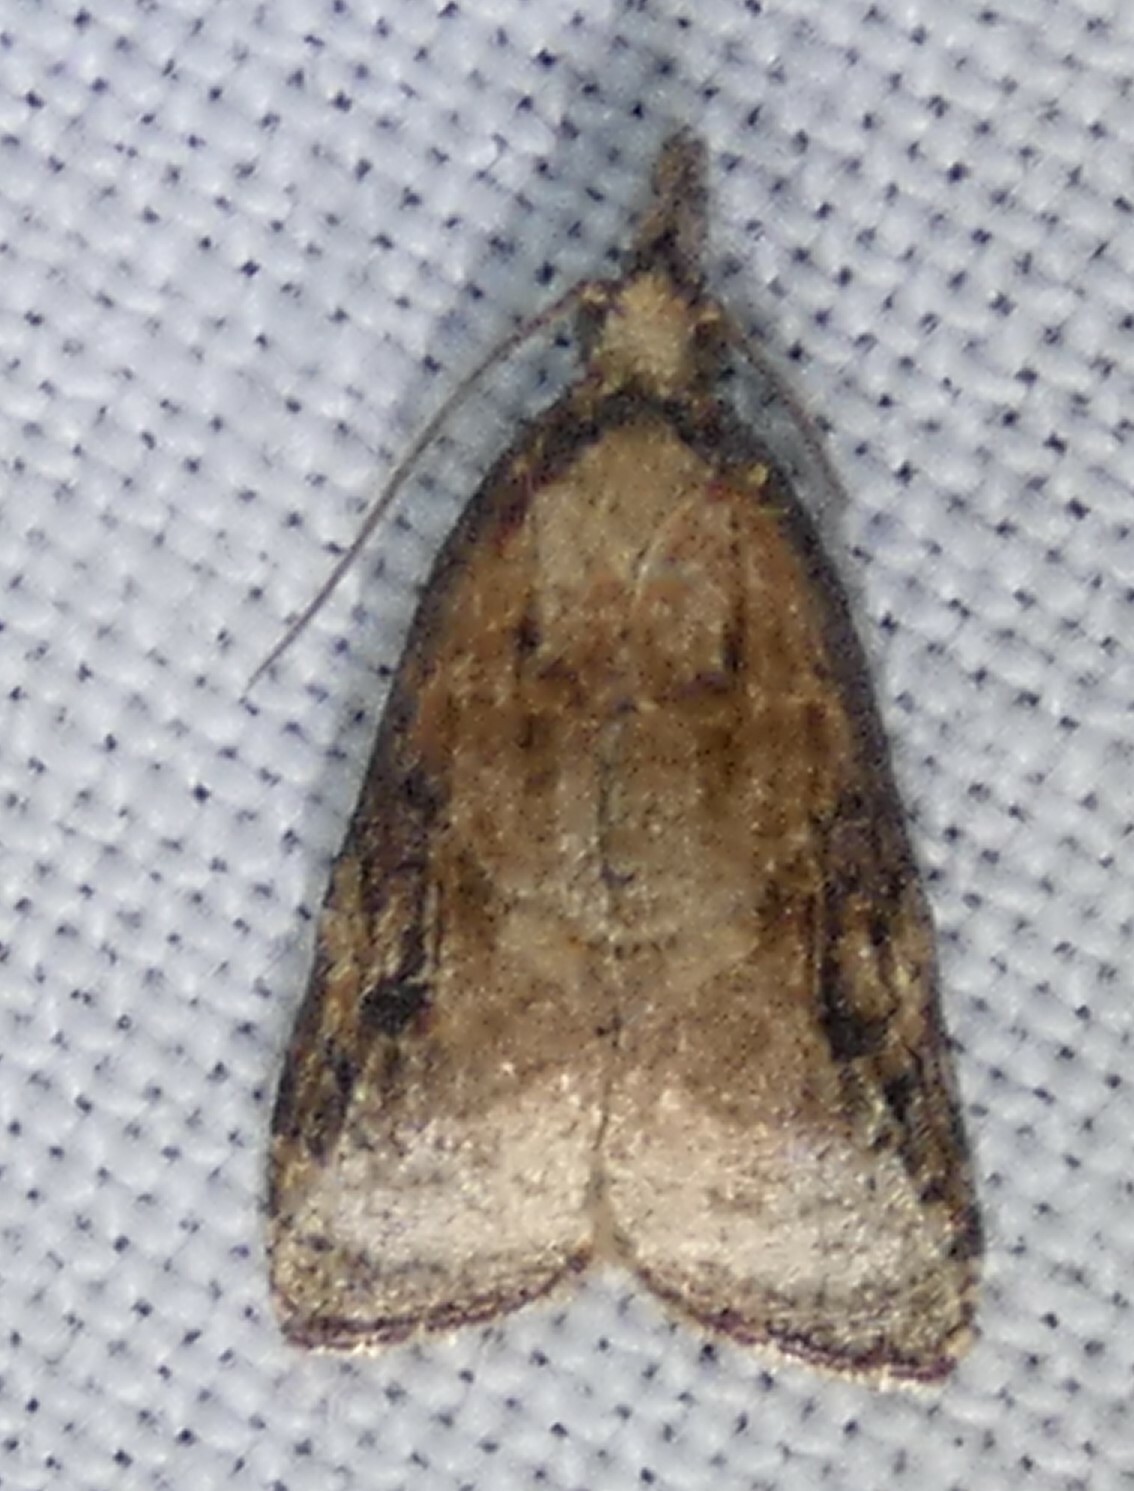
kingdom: Animalia
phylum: Arthropoda
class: Insecta
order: Lepidoptera
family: Tortricidae
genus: Platynota
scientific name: Platynota rostrana
